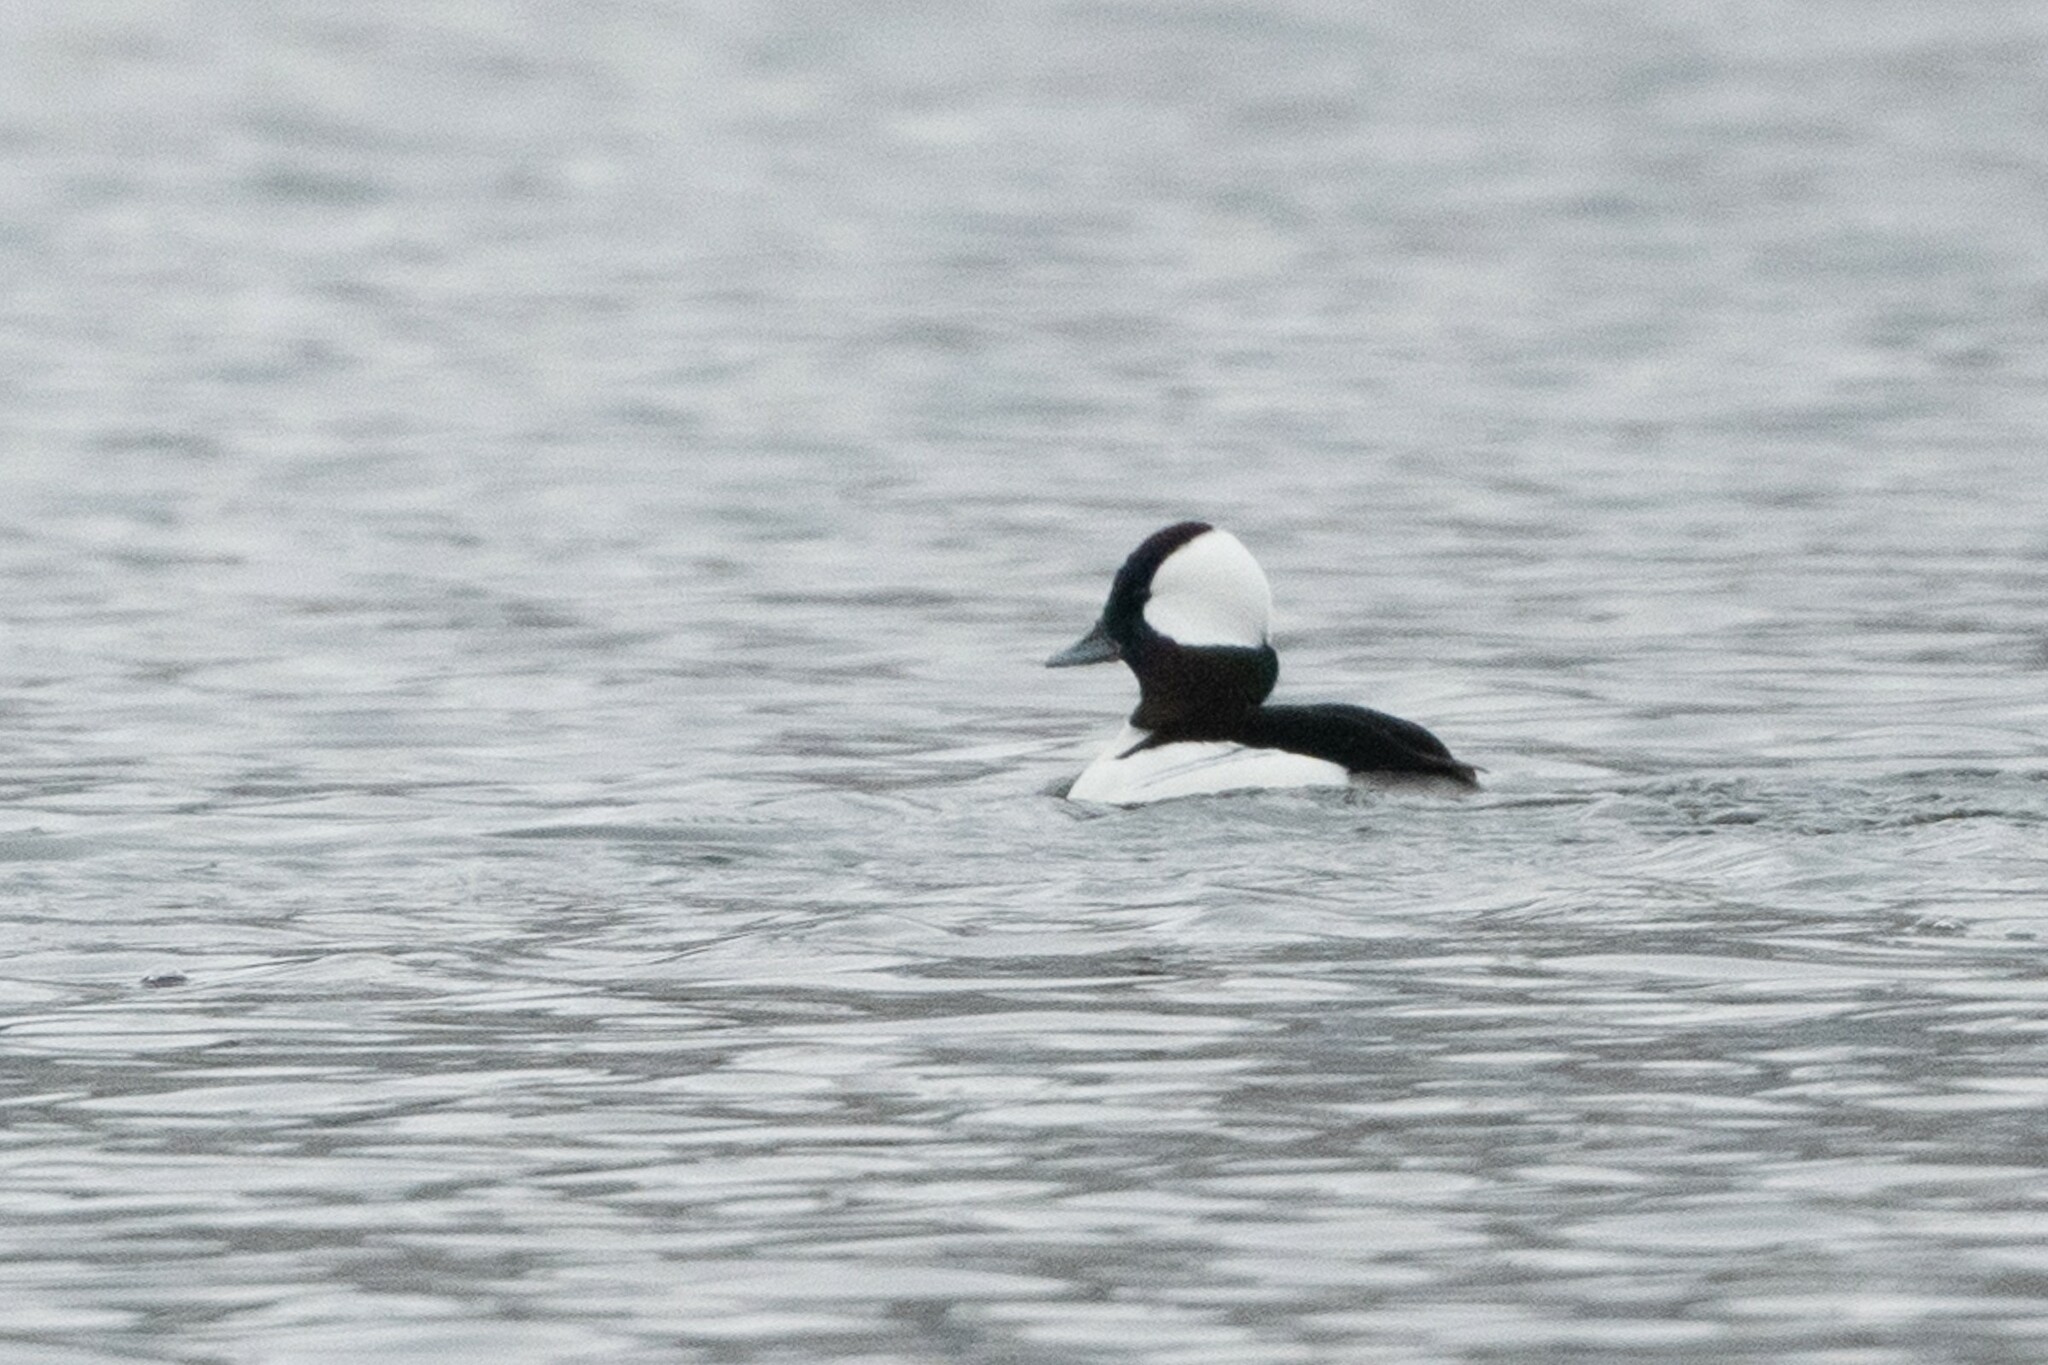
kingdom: Animalia
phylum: Chordata
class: Aves
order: Anseriformes
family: Anatidae
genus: Bucephala
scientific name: Bucephala albeola
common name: Bufflehead
